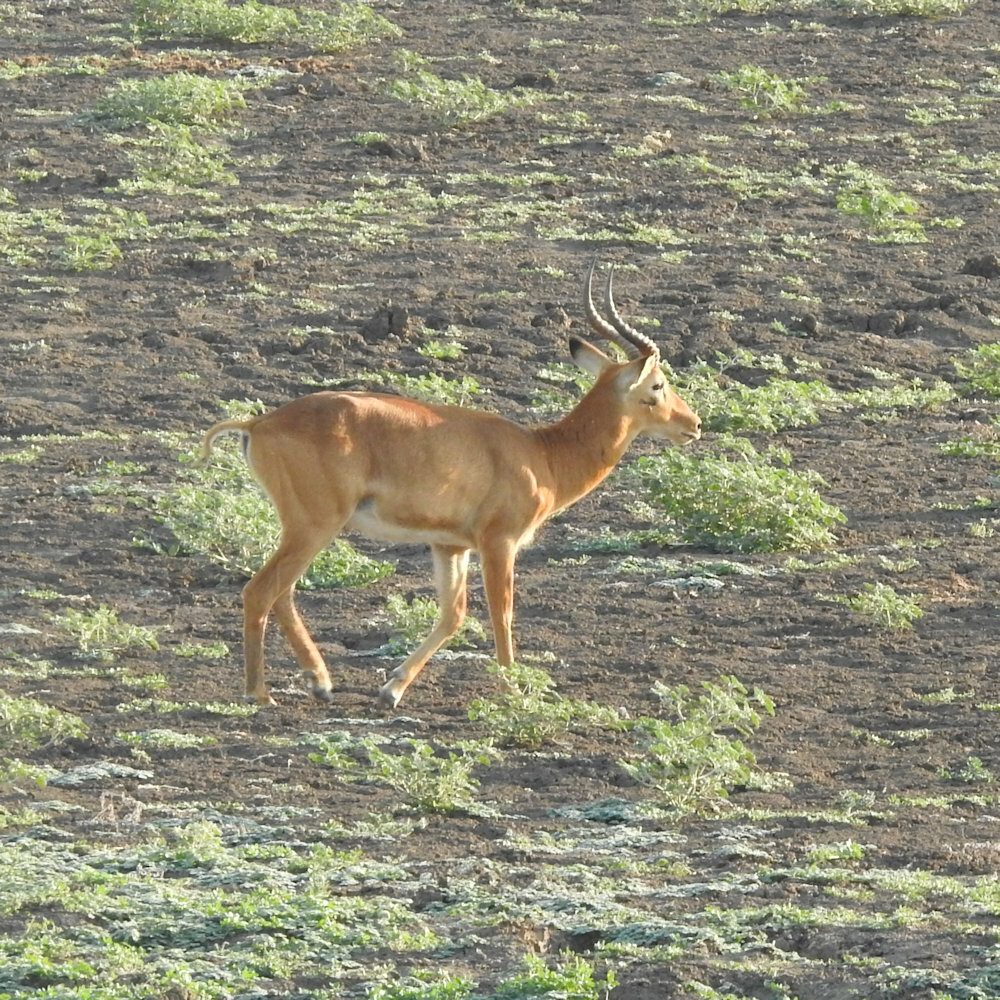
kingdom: Animalia
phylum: Chordata
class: Mammalia
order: Artiodactyla
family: Bovidae
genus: Kobus
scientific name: Kobus vardonii
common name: Puku
